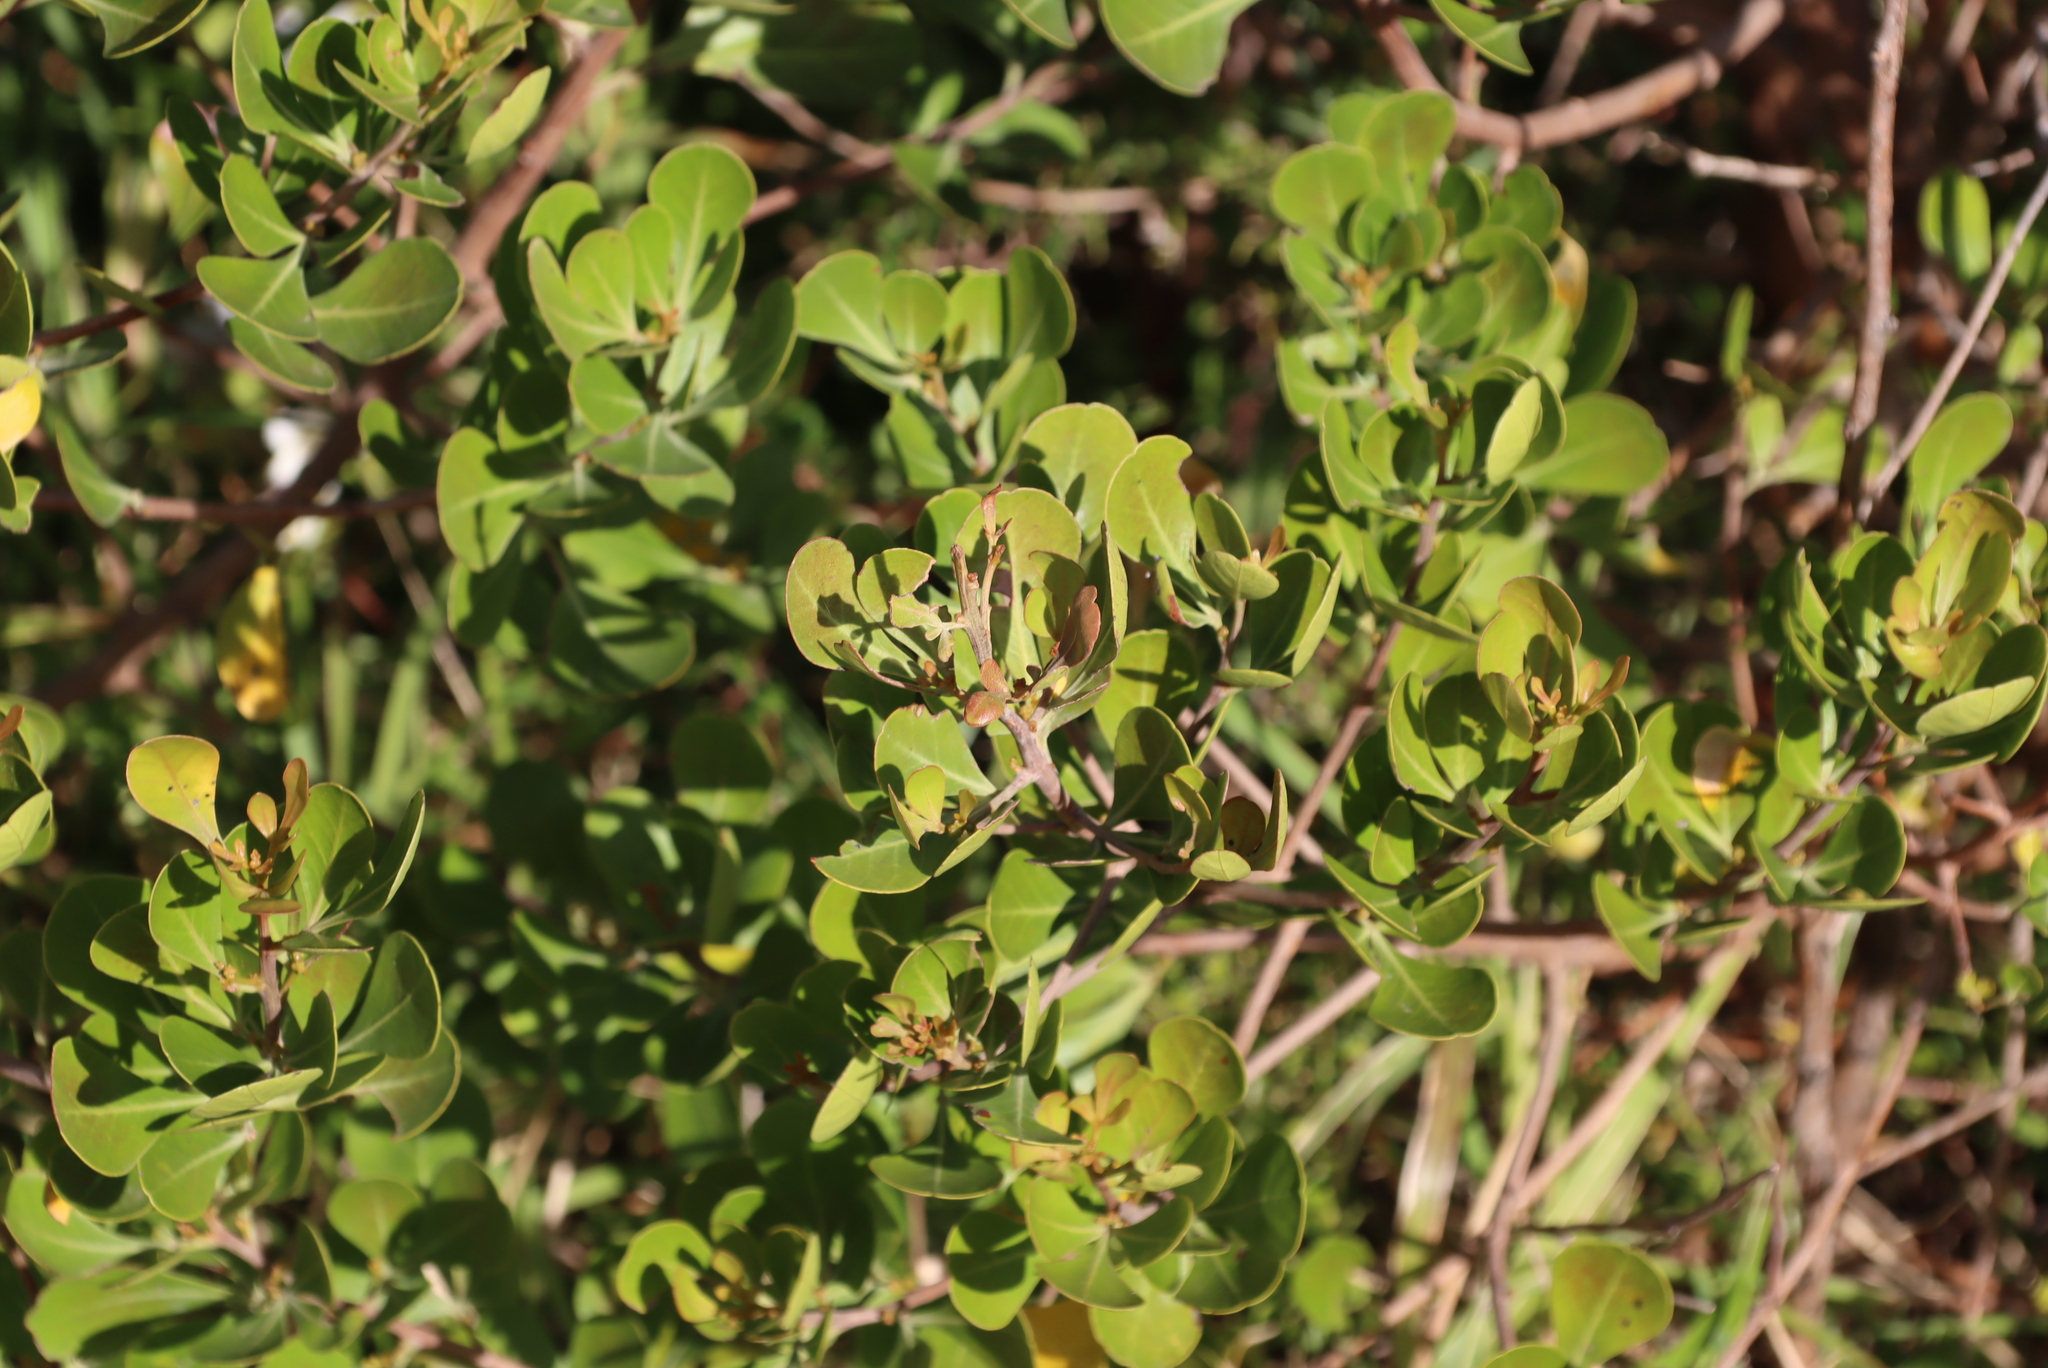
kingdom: Plantae
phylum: Tracheophyta
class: Magnoliopsida
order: Sapindales
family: Anacardiaceae
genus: Searsia
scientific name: Searsia lucida
